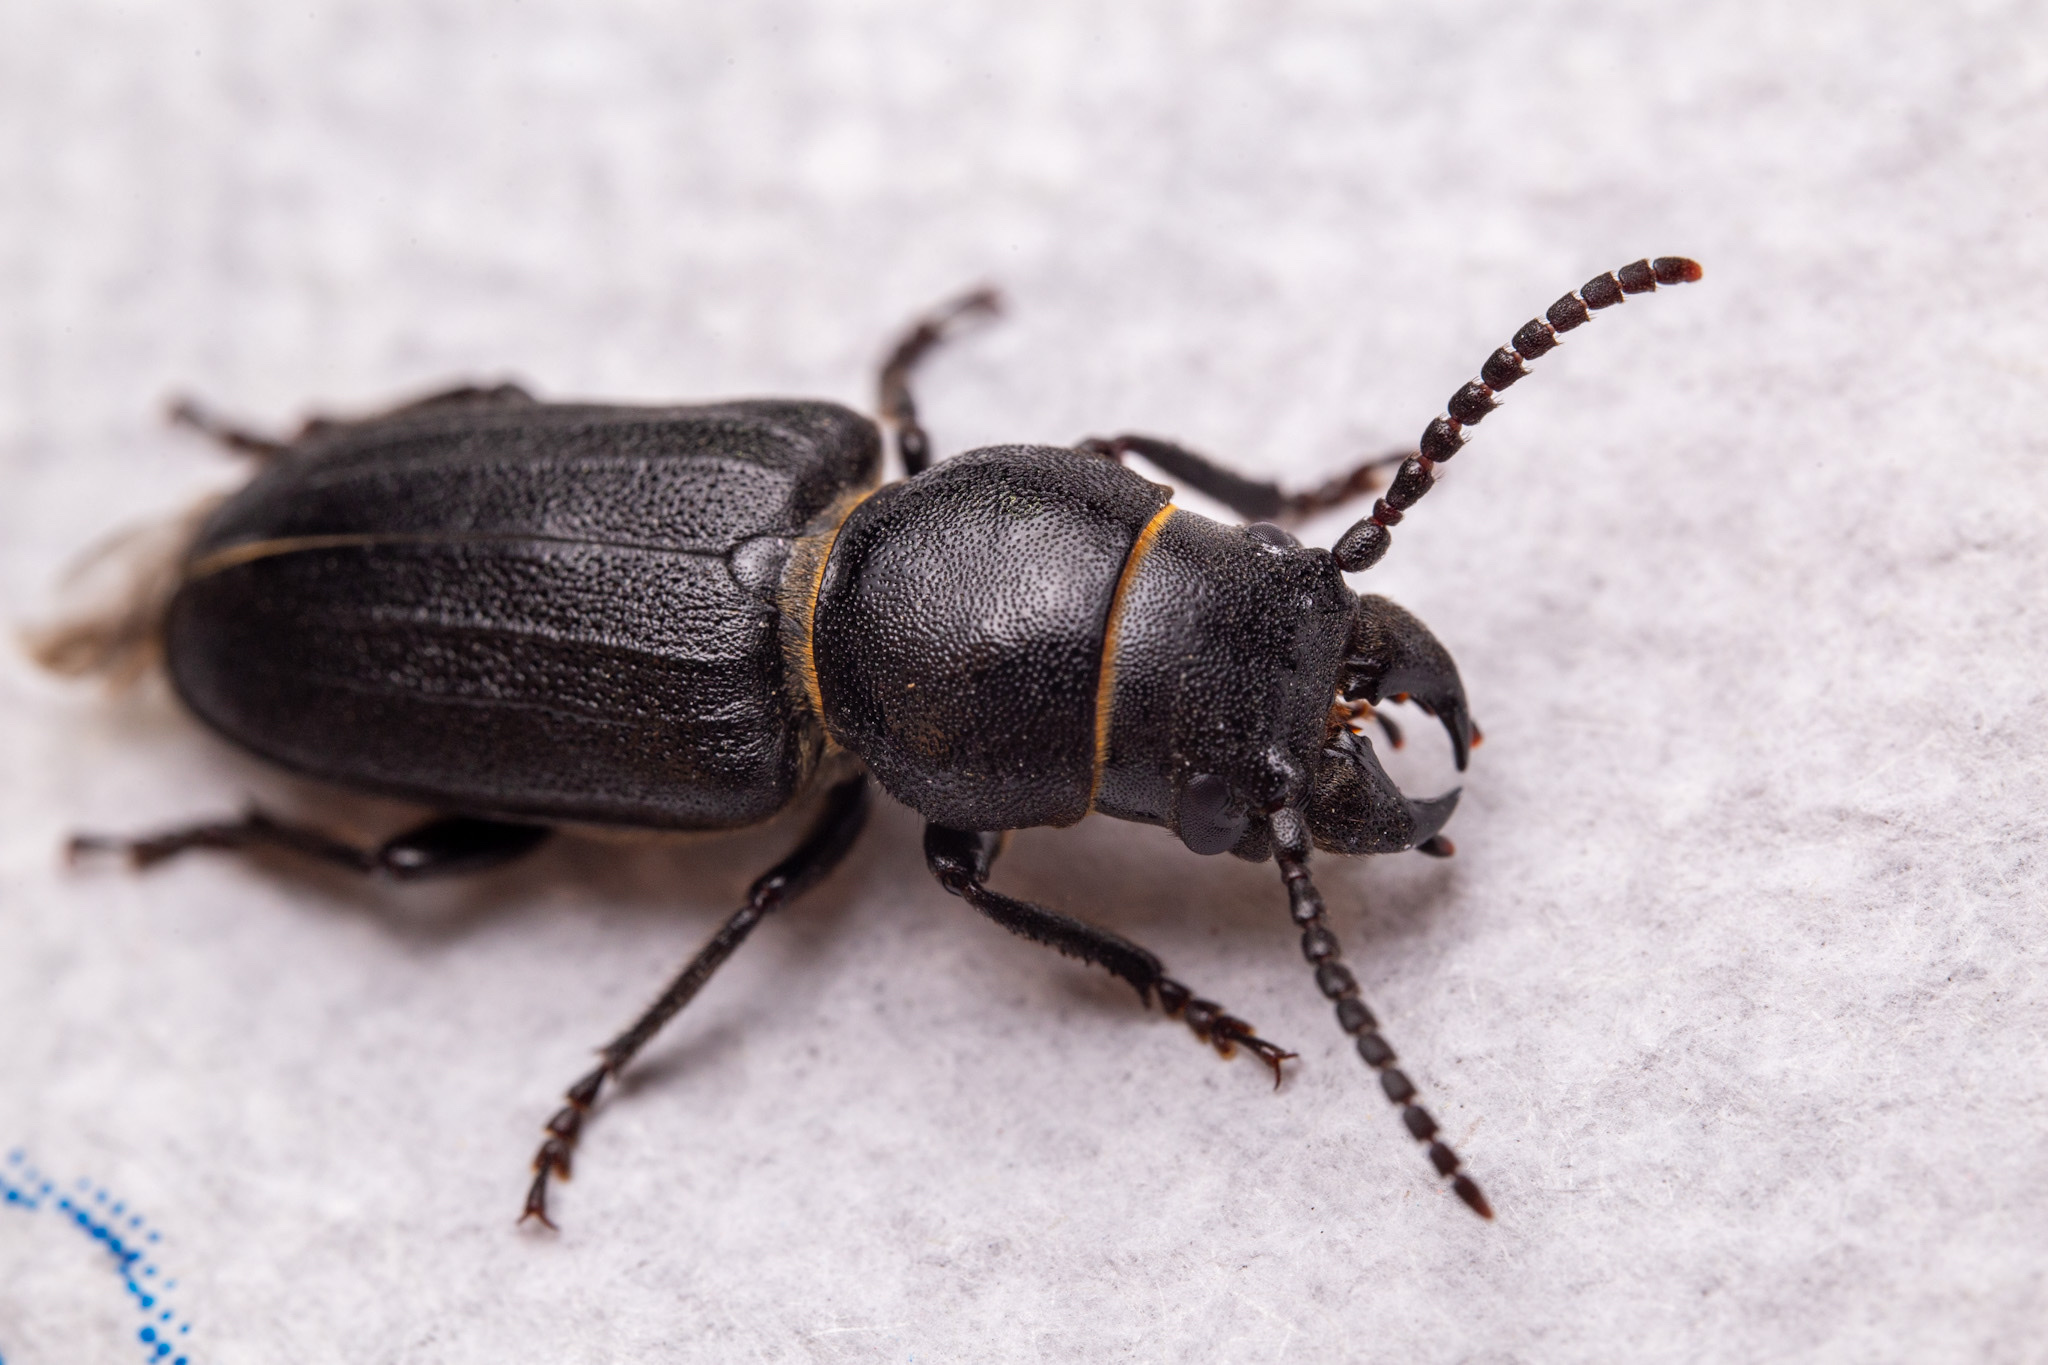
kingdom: Animalia
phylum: Arthropoda
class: Insecta
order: Coleoptera
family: Cerambycidae
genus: Spondylis
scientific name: Spondylis buprestoides
